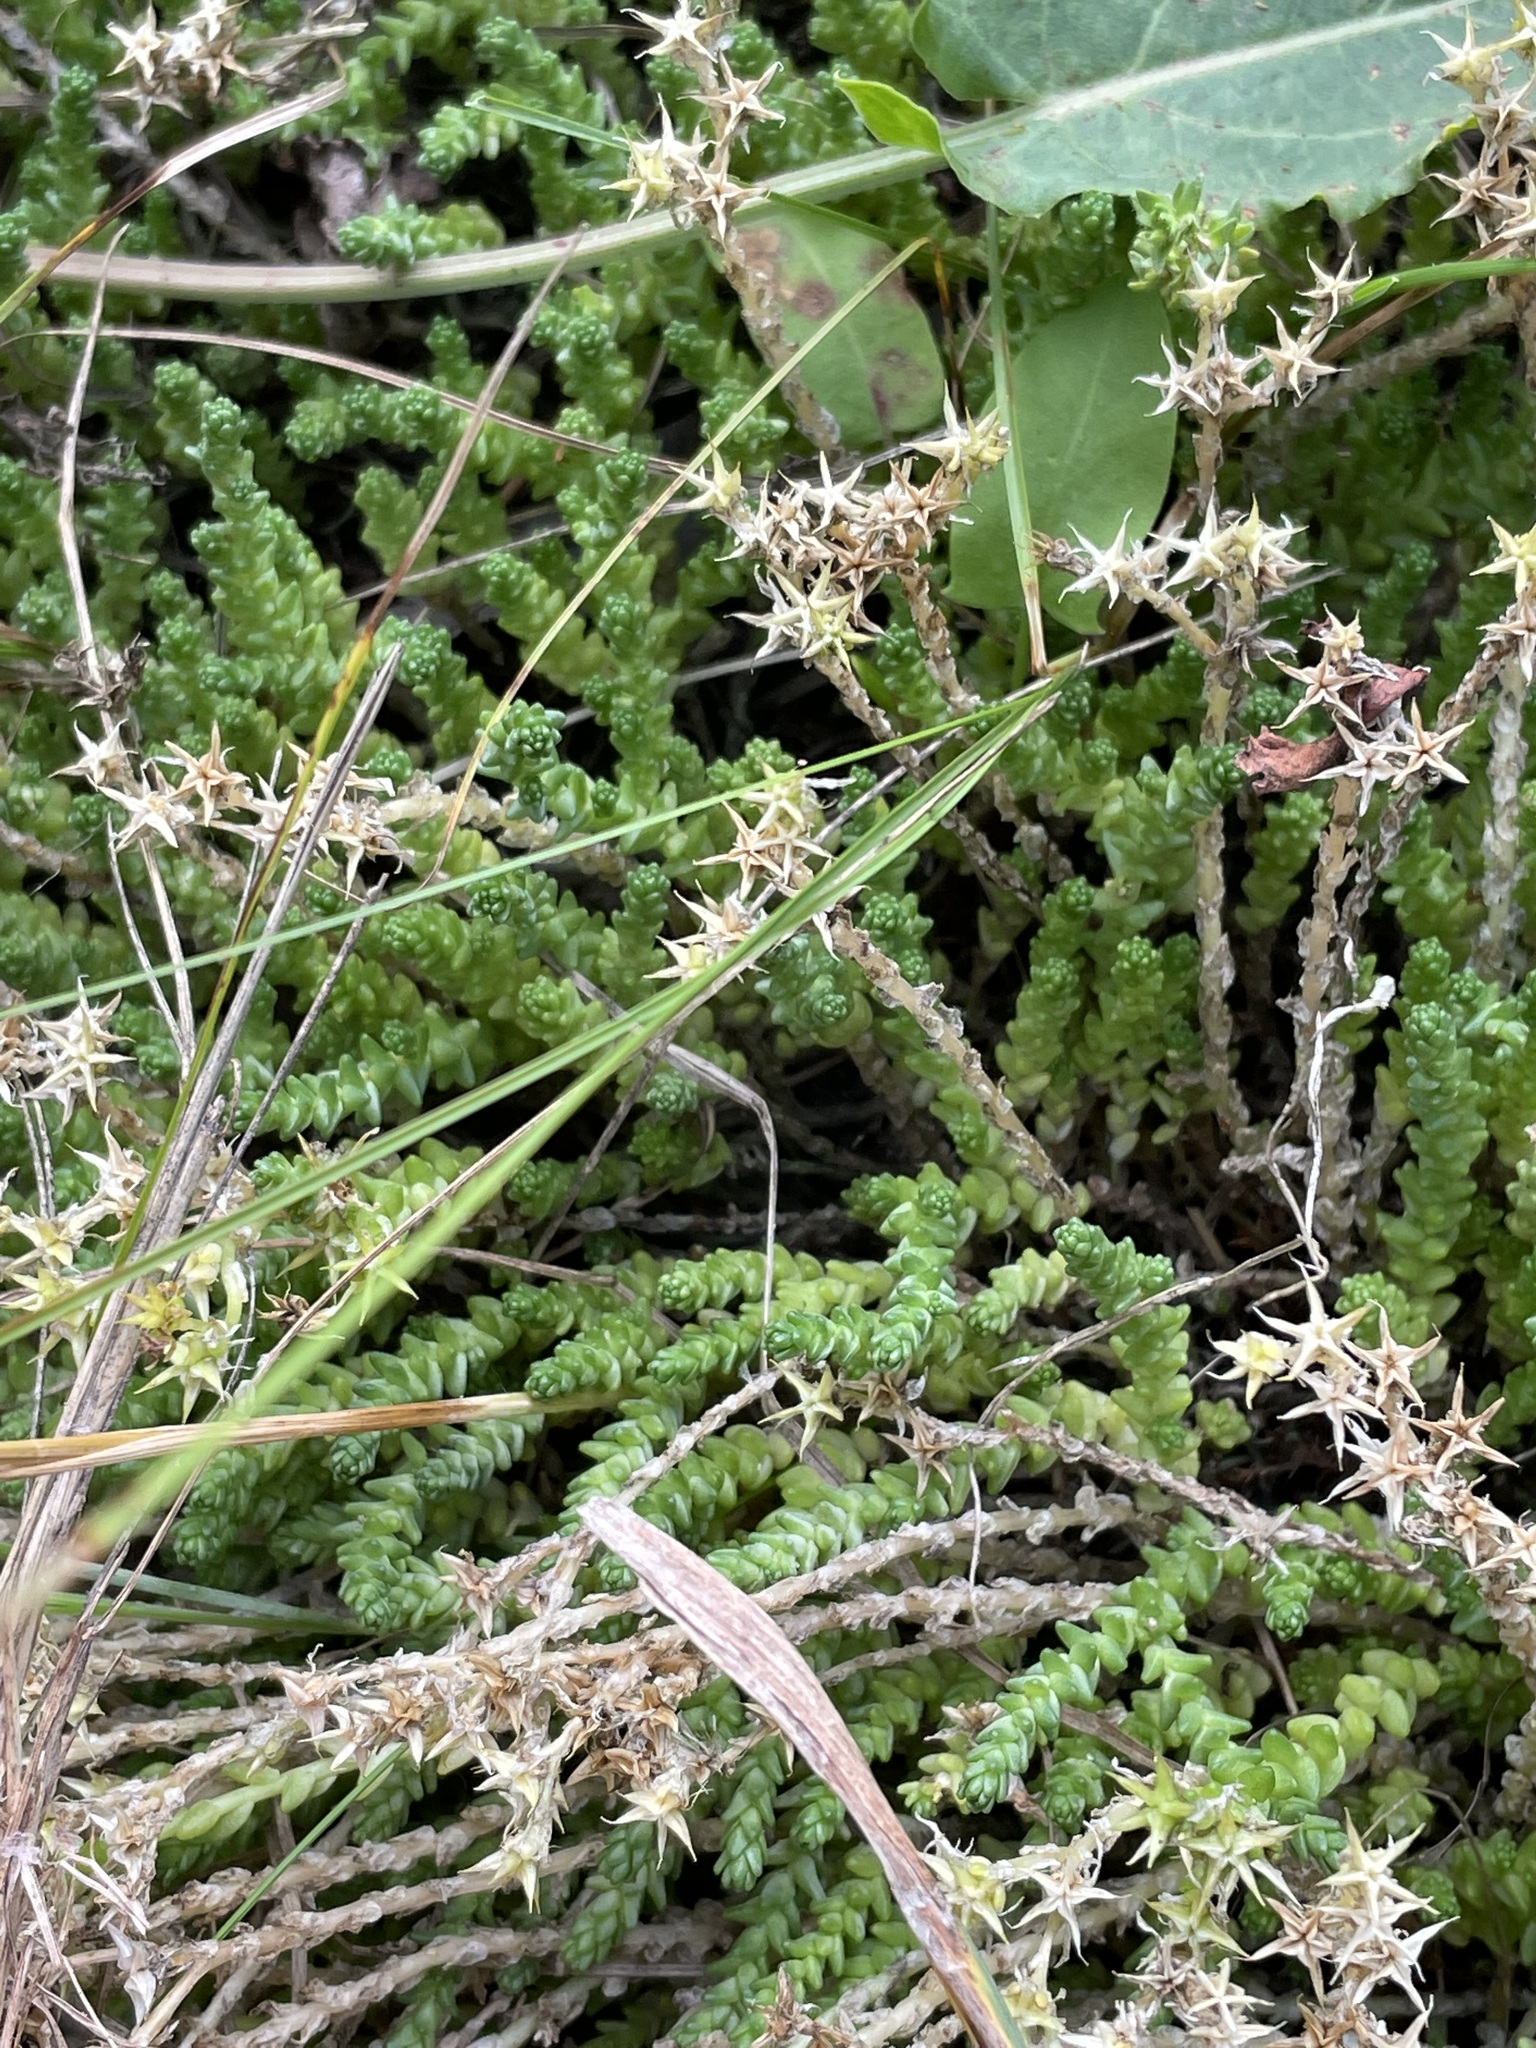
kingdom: Plantae
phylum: Tracheophyta
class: Magnoliopsida
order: Saxifragales
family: Crassulaceae
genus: Sedum
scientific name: Sedum acre
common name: Biting stonecrop
